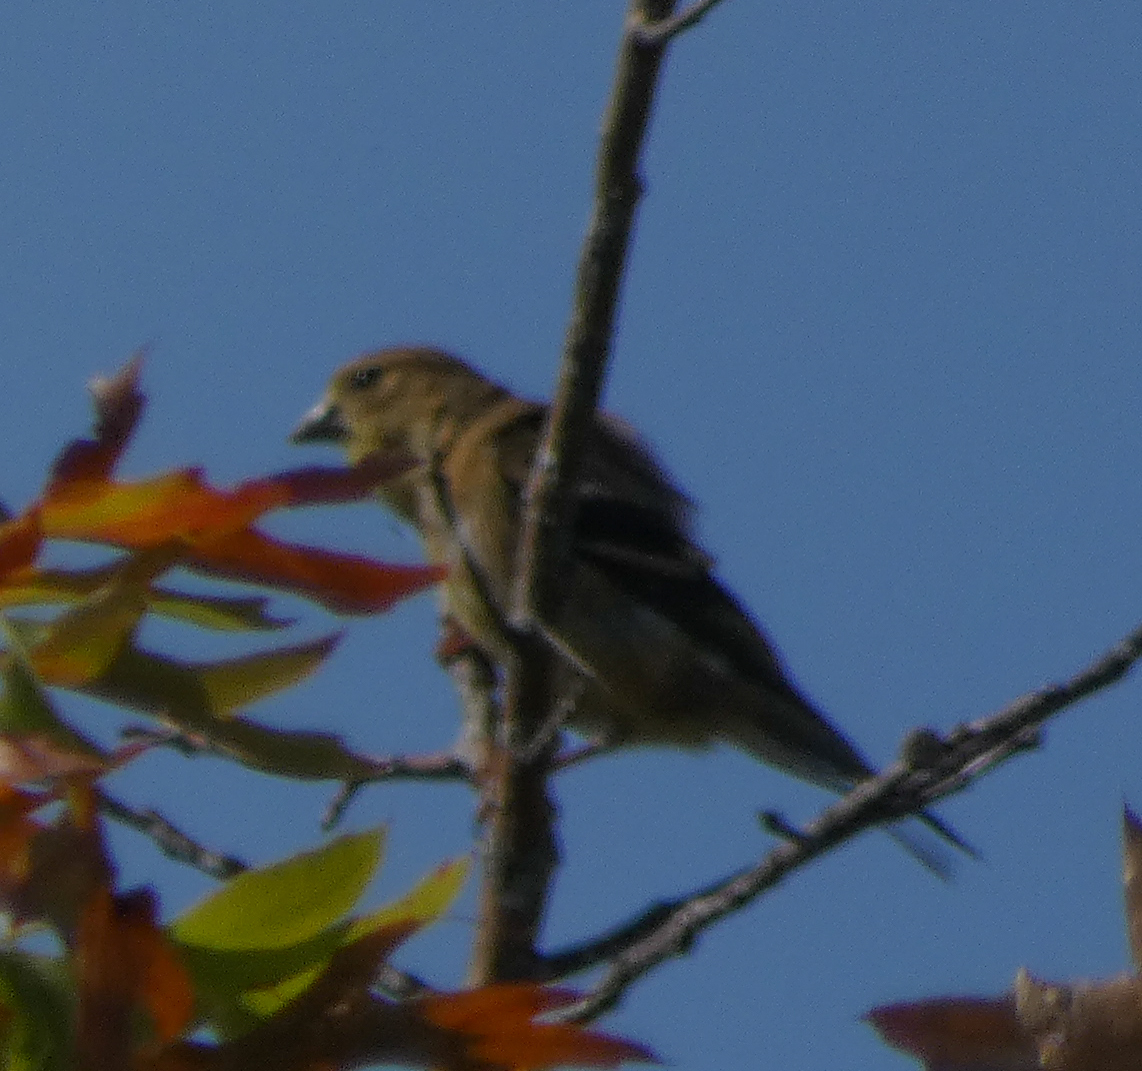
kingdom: Animalia
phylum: Chordata
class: Aves
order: Passeriformes
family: Fringillidae
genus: Spinus
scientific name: Spinus tristis
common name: American goldfinch
